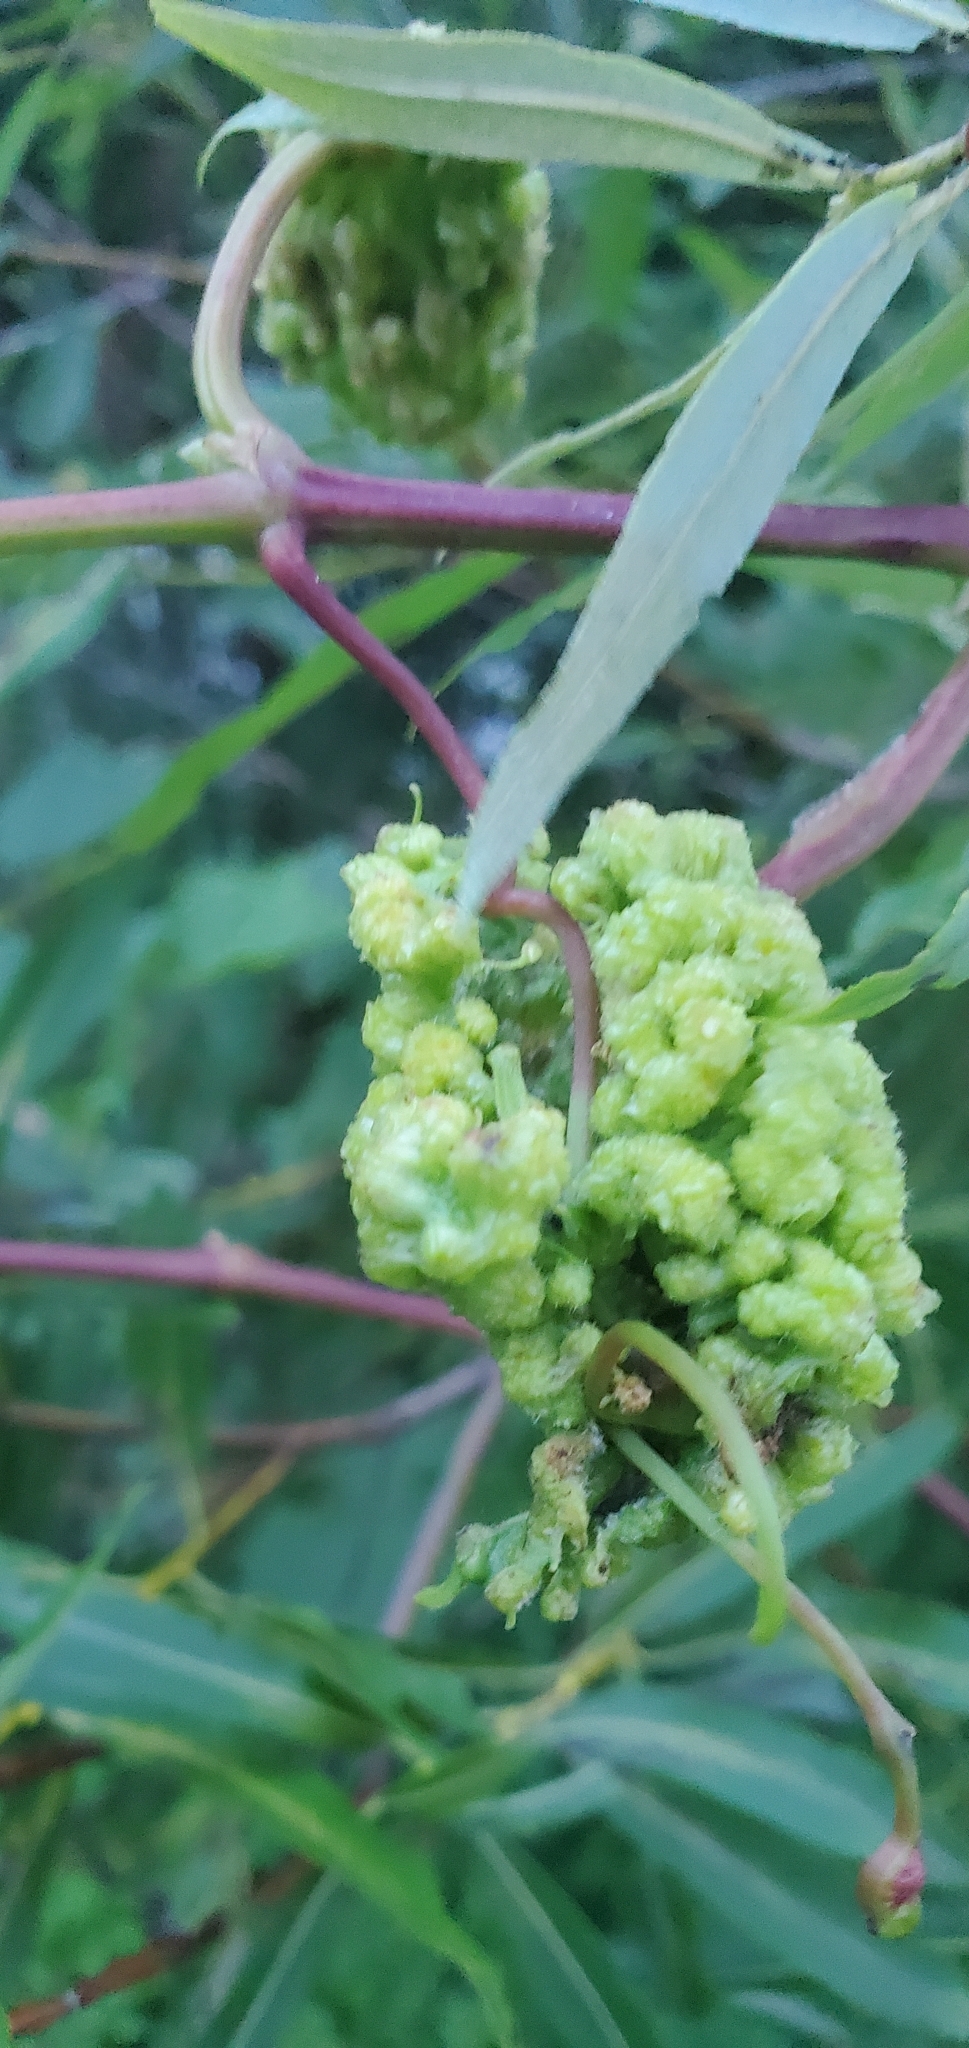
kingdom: Animalia
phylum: Arthropoda
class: Insecta
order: Hemiptera
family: Phylloxeridae
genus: Daktulosphaira
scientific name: Daktulosphaira vitifoliae
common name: Grape phylloxera
